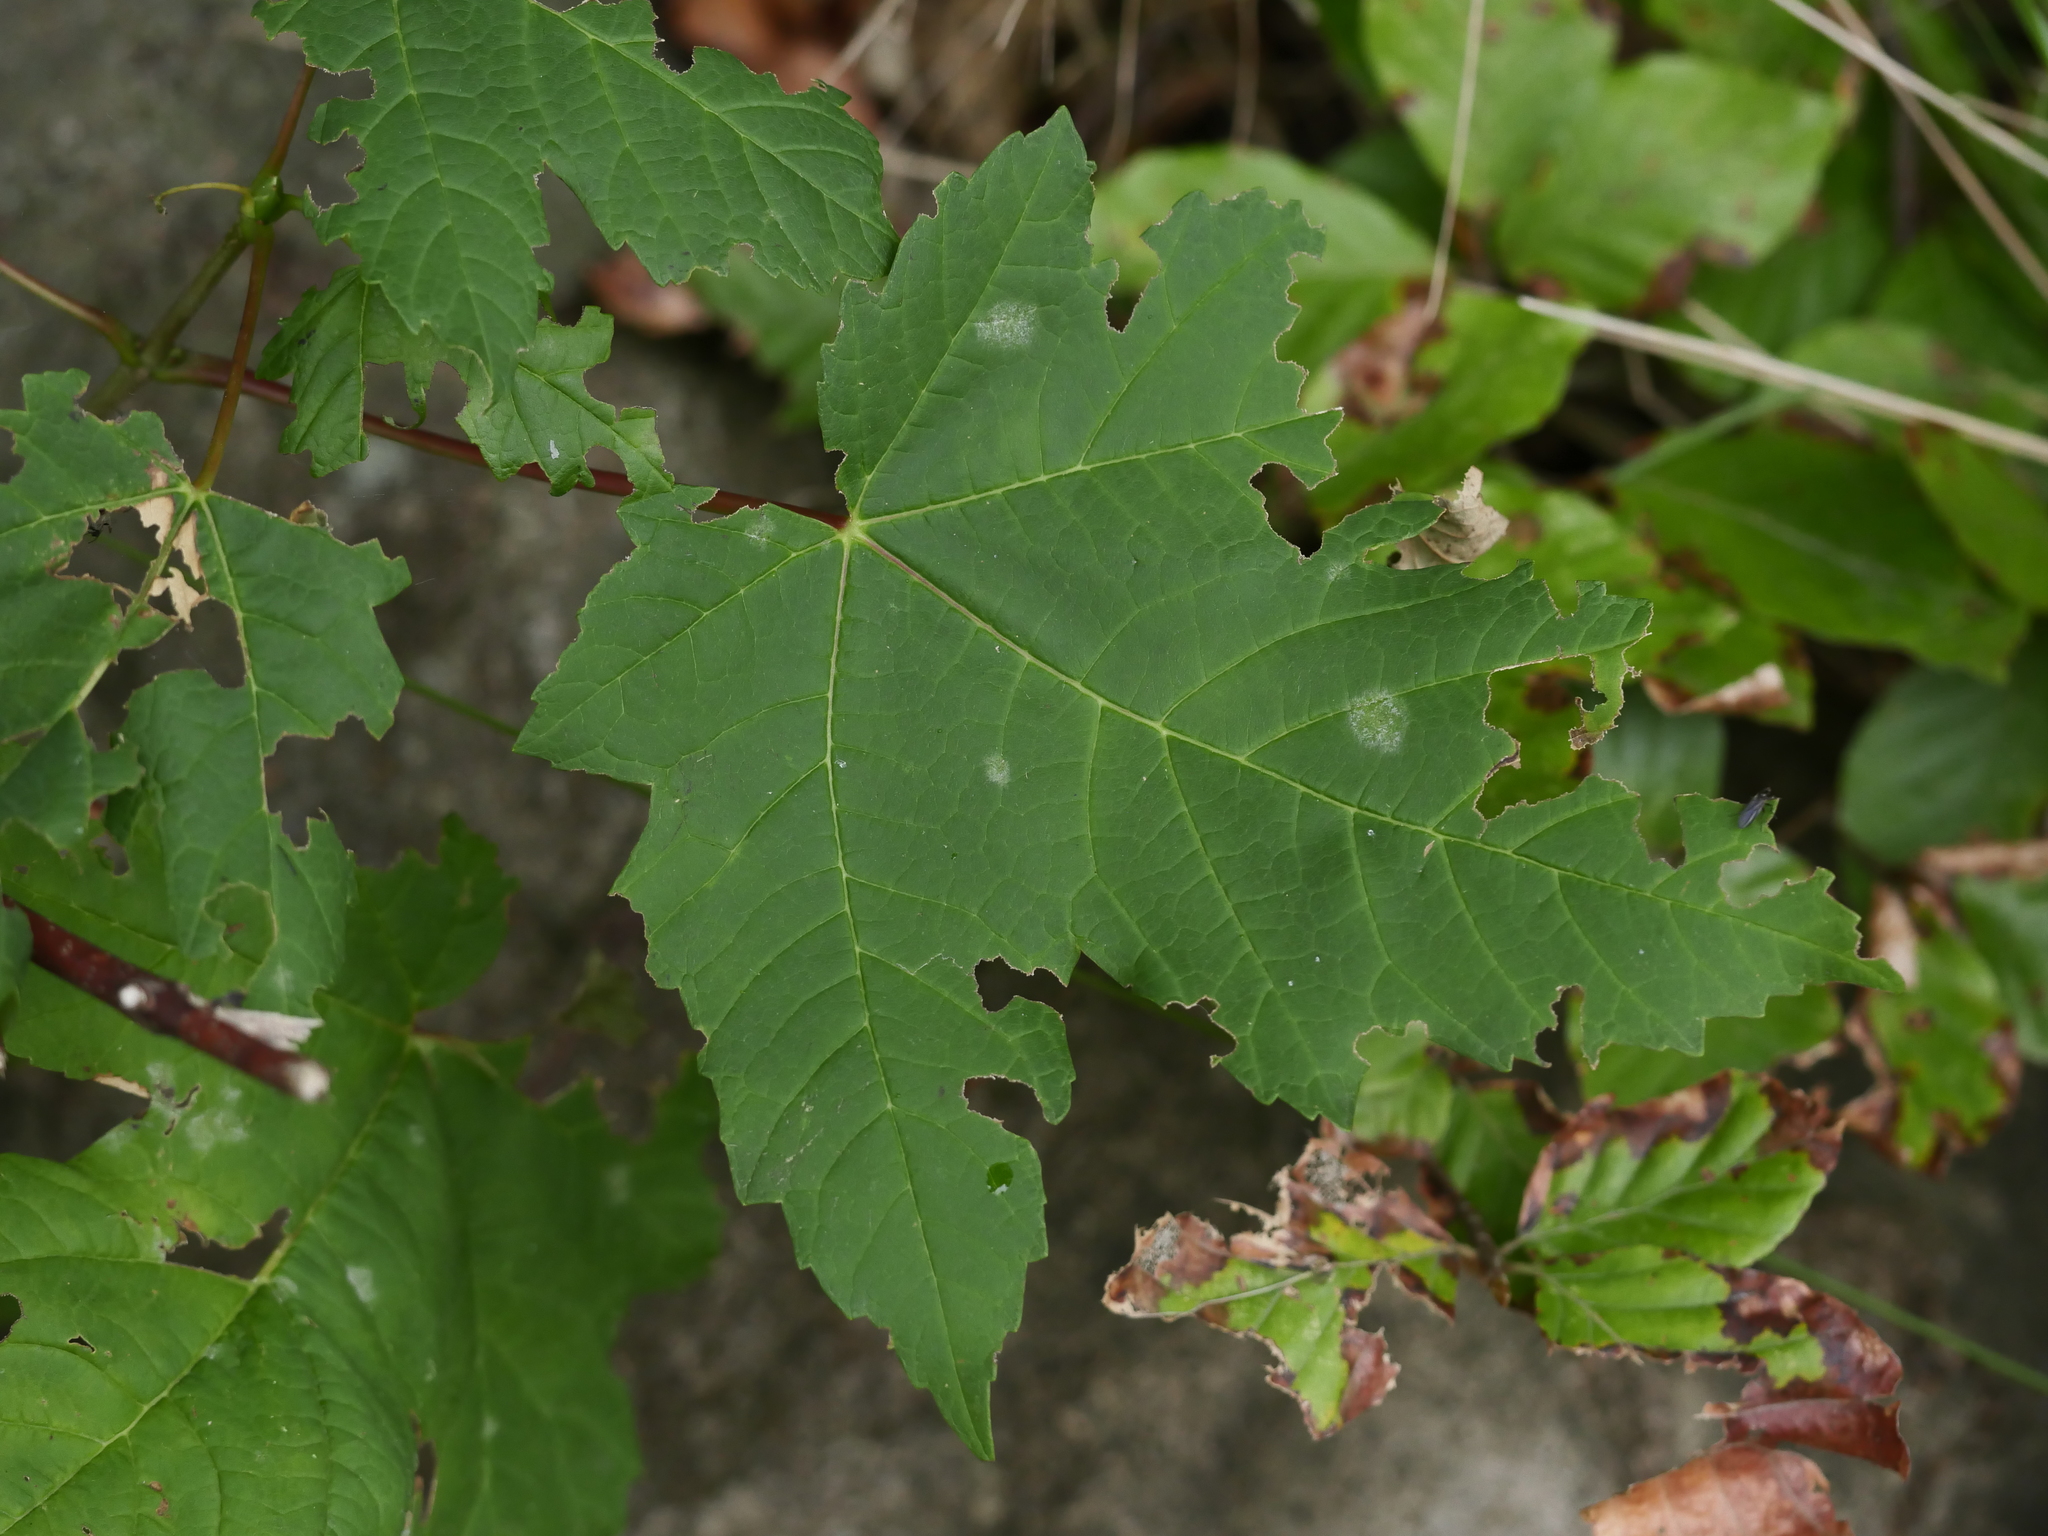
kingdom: Plantae
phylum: Tracheophyta
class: Magnoliopsida
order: Sapindales
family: Sapindaceae
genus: Acer
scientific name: Acer pseudoplatanus
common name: Sycamore
